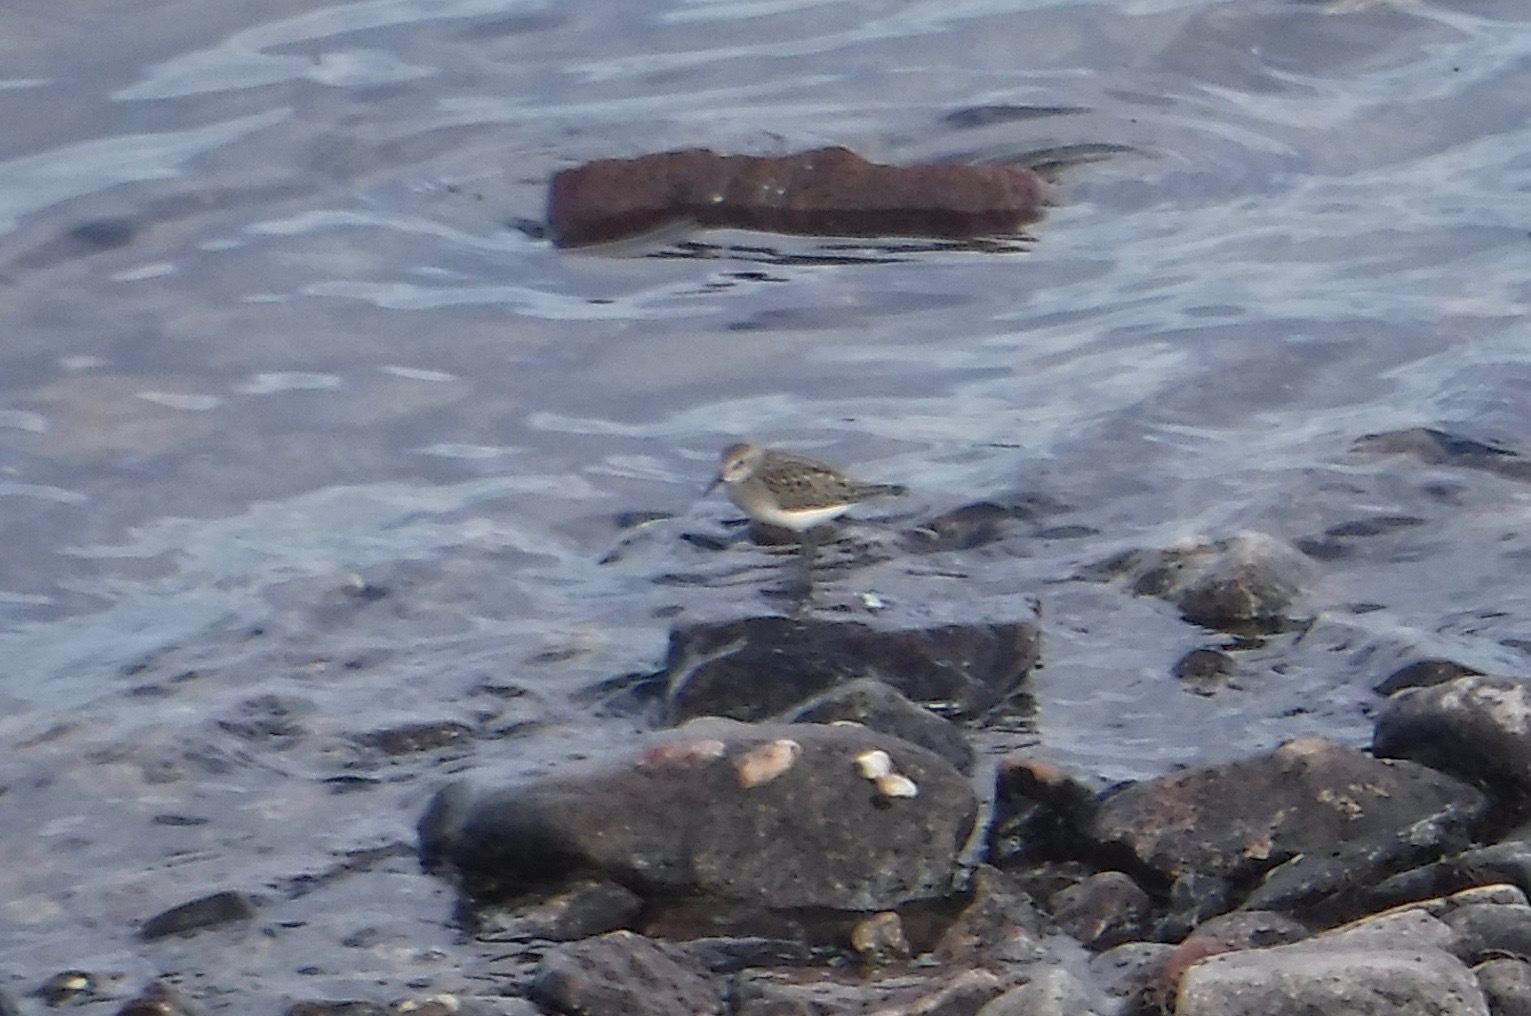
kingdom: Animalia
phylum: Chordata
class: Aves
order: Charadriiformes
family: Scolopacidae
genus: Calidris
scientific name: Calidris
